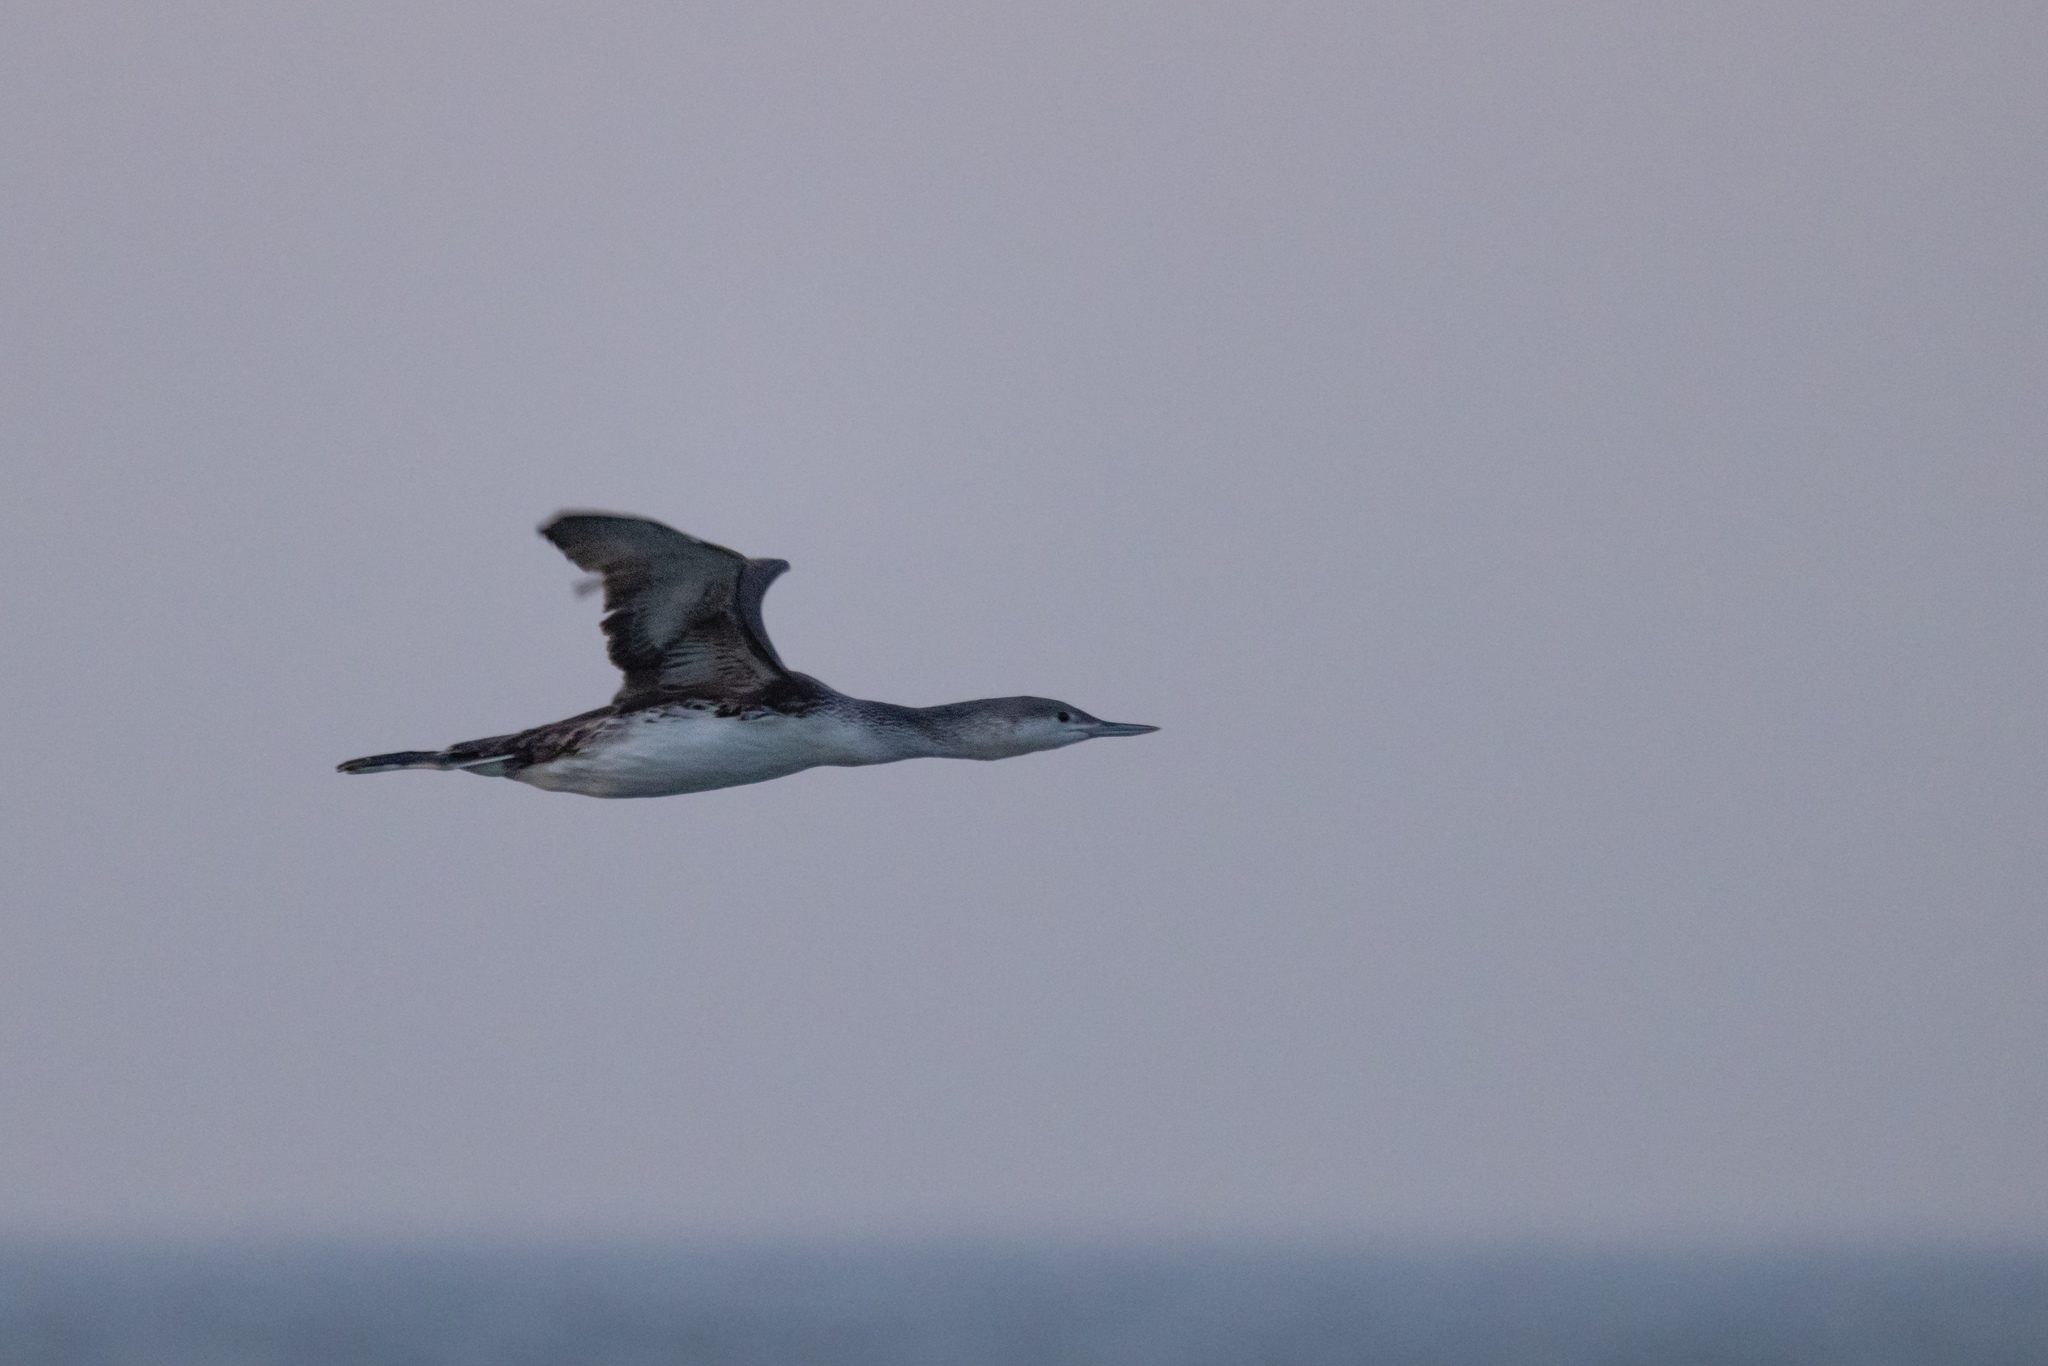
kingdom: Animalia
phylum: Chordata
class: Aves
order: Gaviiformes
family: Gaviidae
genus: Gavia
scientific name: Gavia stellata
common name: Red-throated loon
